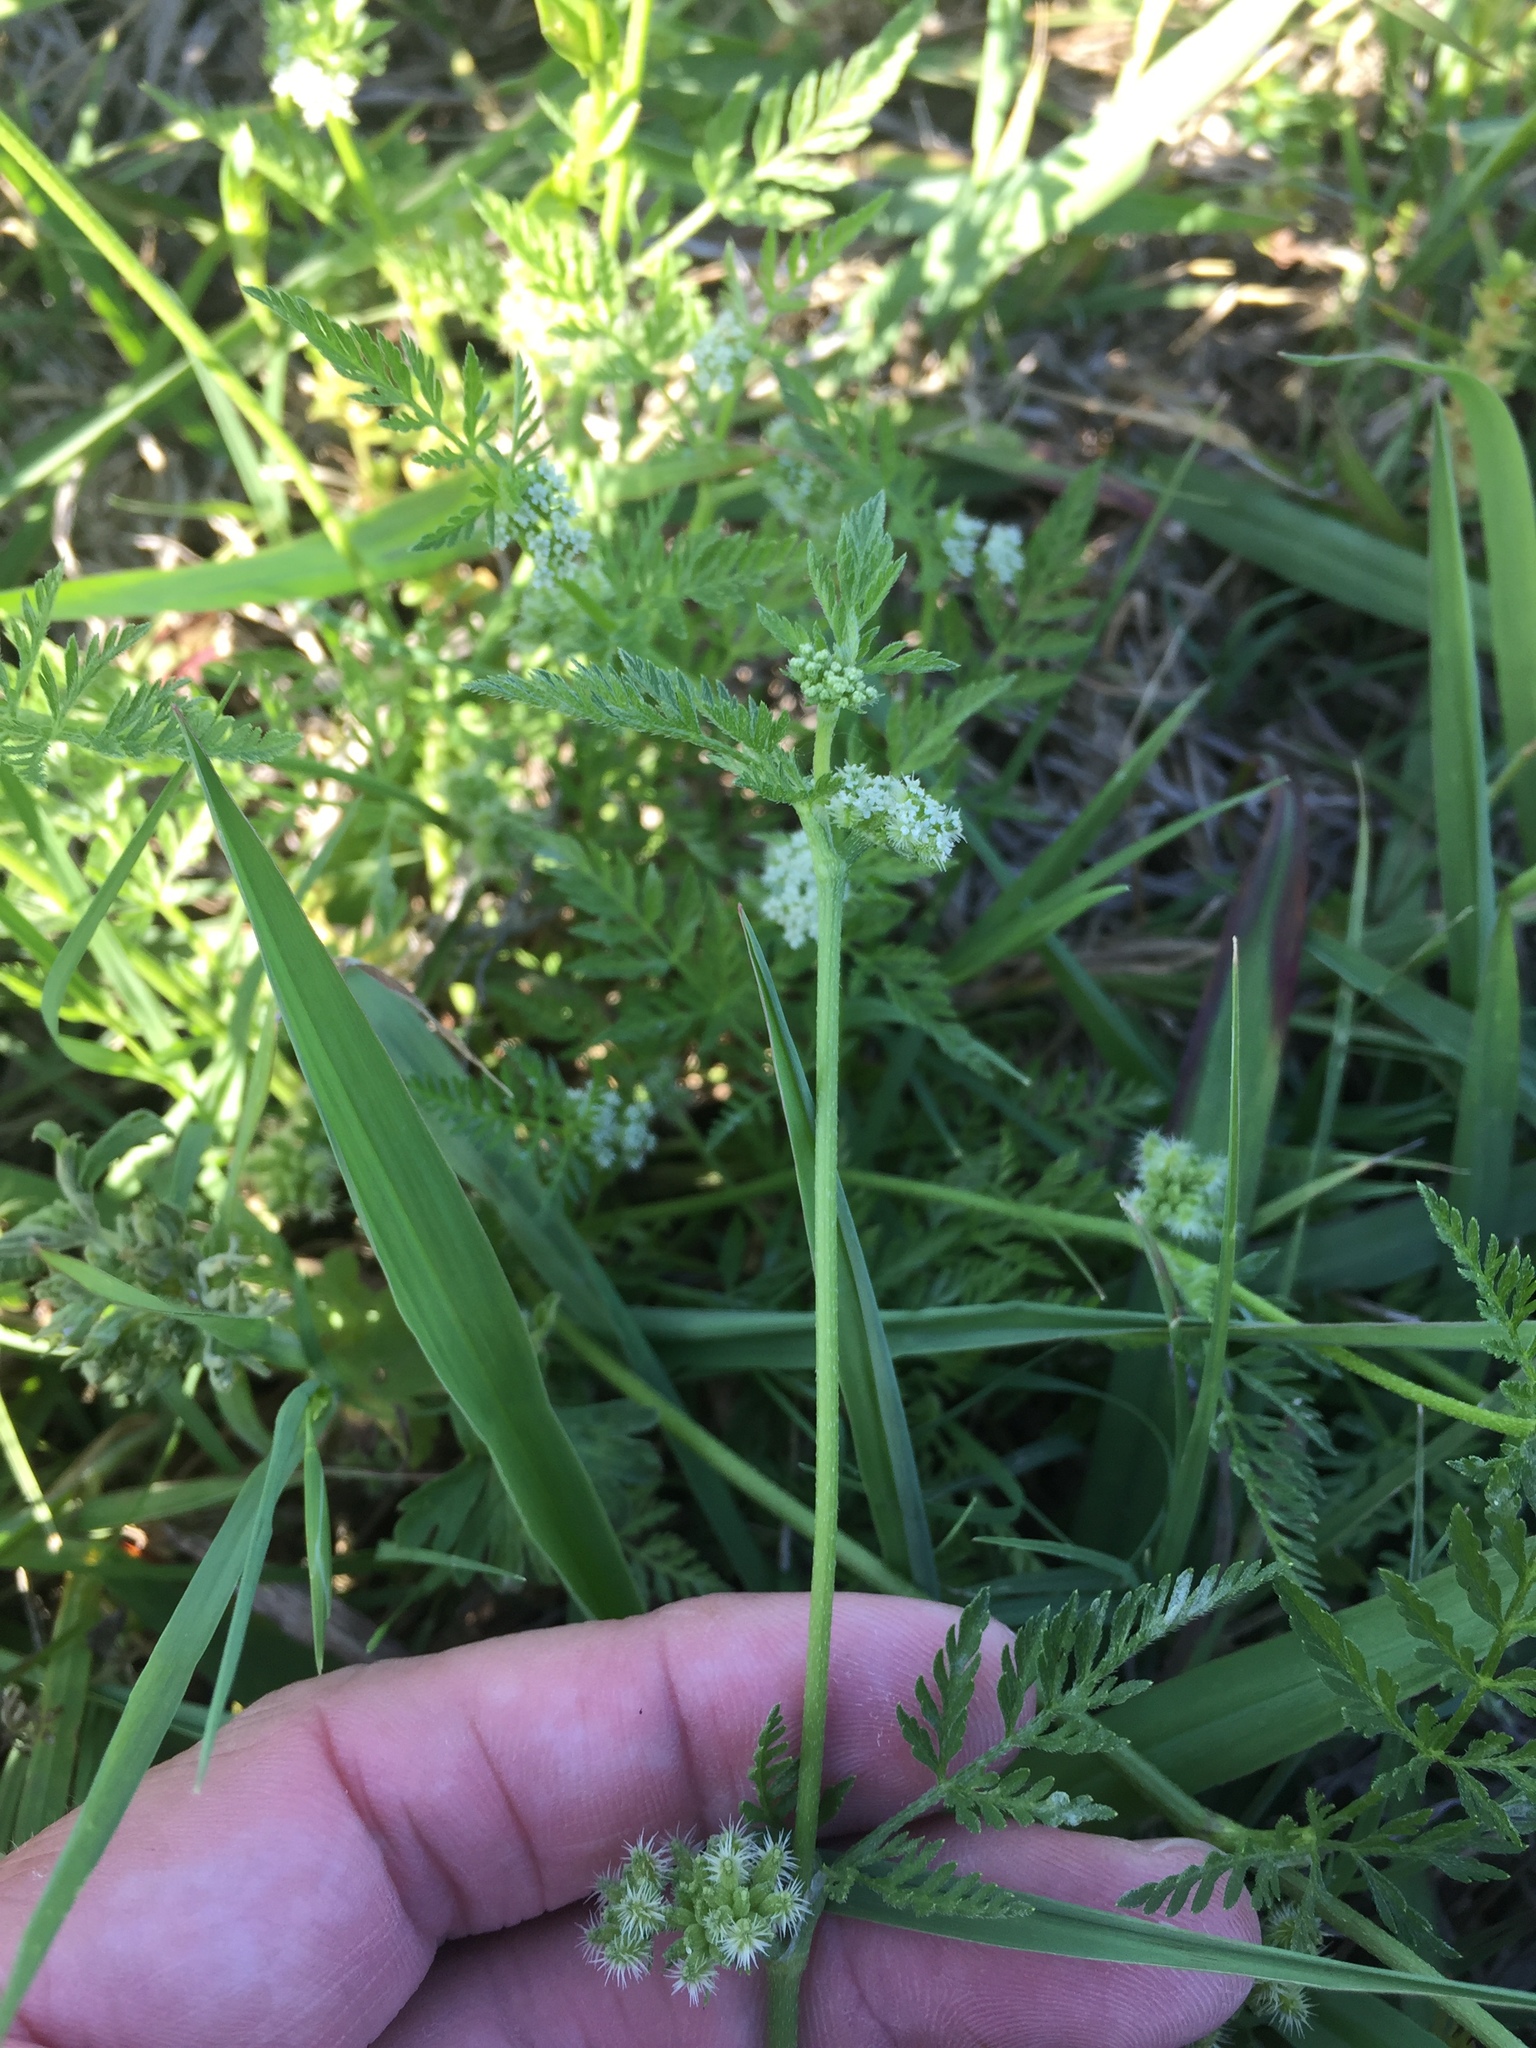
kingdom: Plantae
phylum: Tracheophyta
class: Magnoliopsida
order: Apiales
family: Apiaceae
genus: Torilis
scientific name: Torilis nodosa
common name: Knotted hedge-parsley
